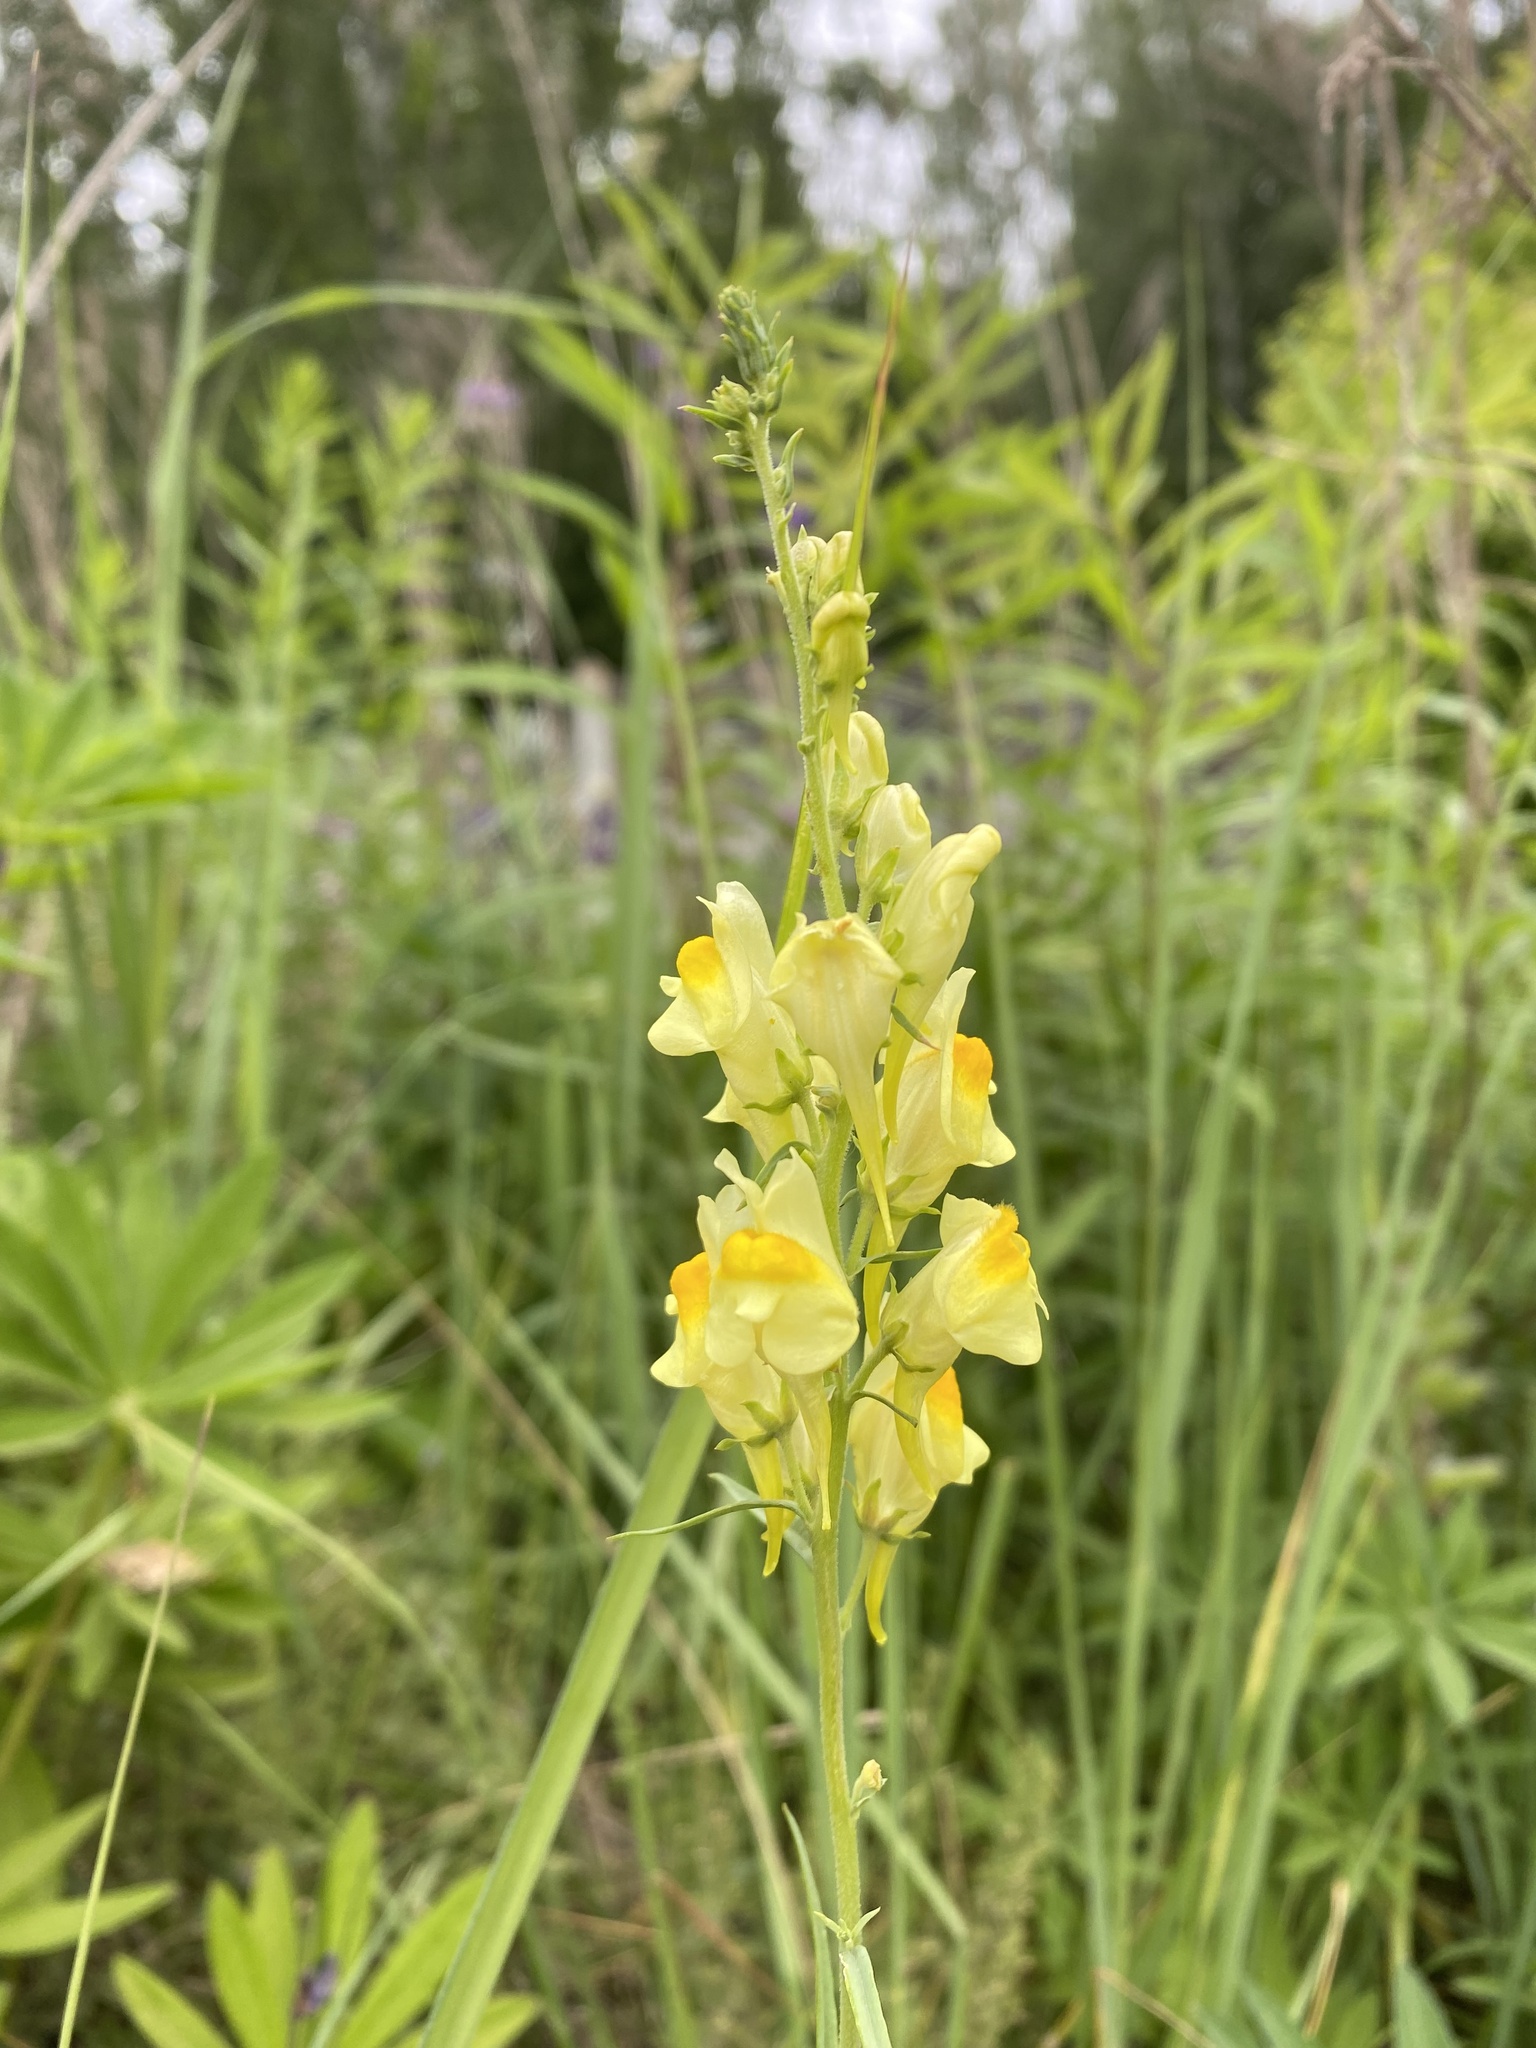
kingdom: Plantae
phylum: Tracheophyta
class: Magnoliopsida
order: Lamiales
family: Plantaginaceae
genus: Linaria
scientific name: Linaria vulgaris
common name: Butter and eggs
